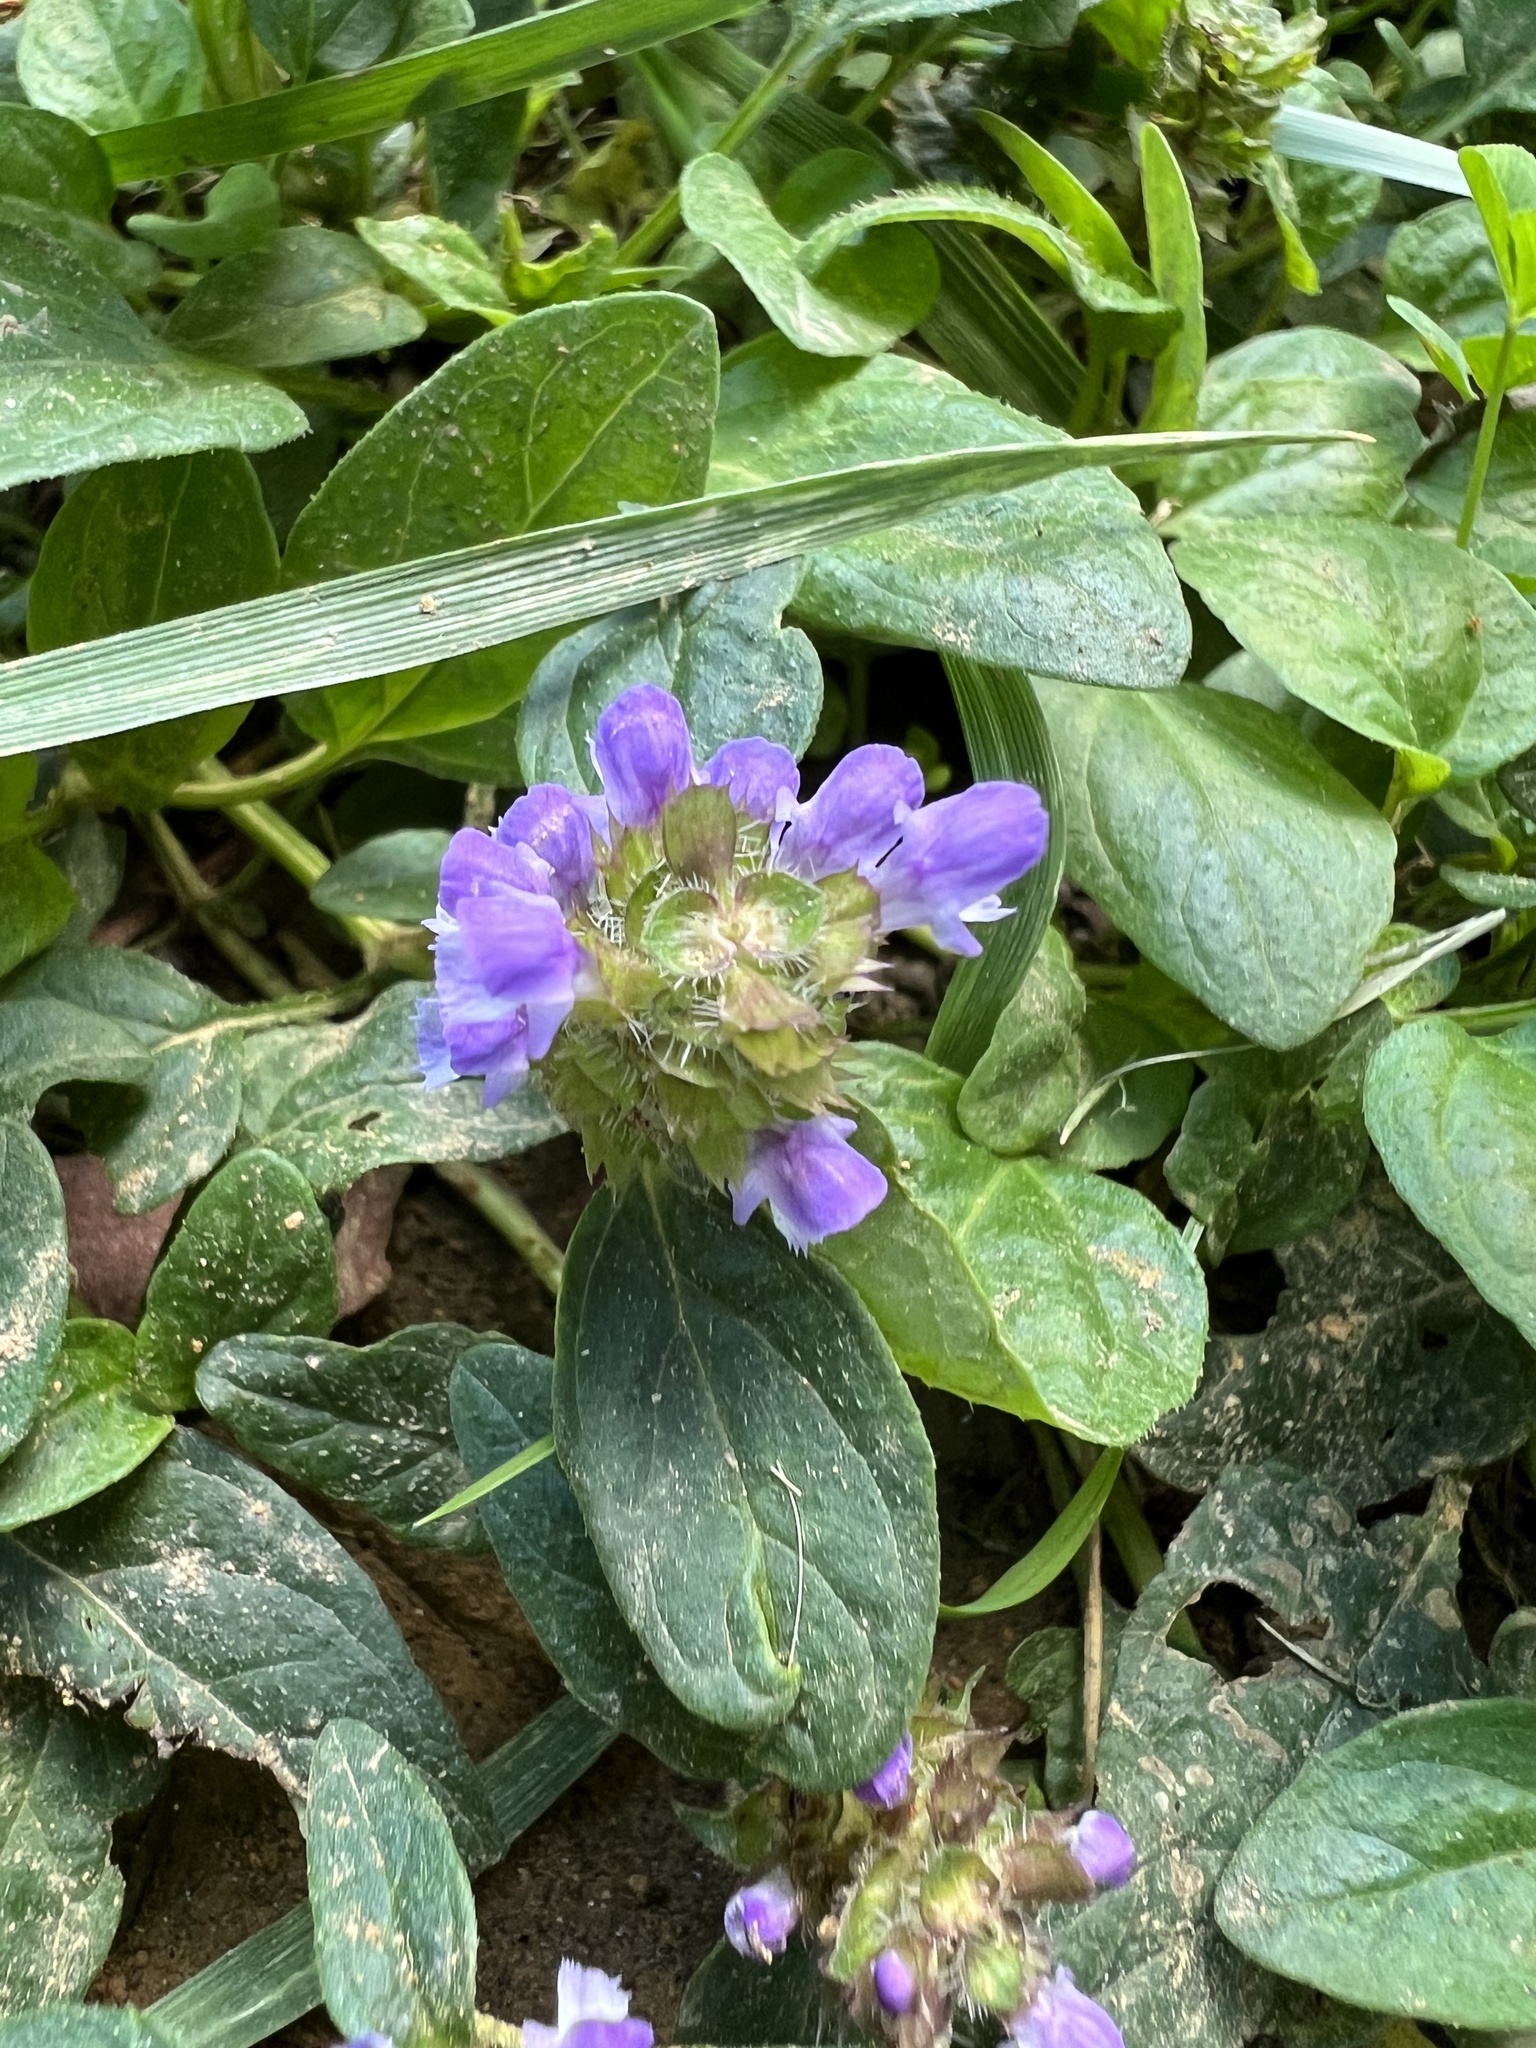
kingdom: Plantae
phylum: Tracheophyta
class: Magnoliopsida
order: Lamiales
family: Lamiaceae
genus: Prunella
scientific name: Prunella vulgaris
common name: Heal-all
